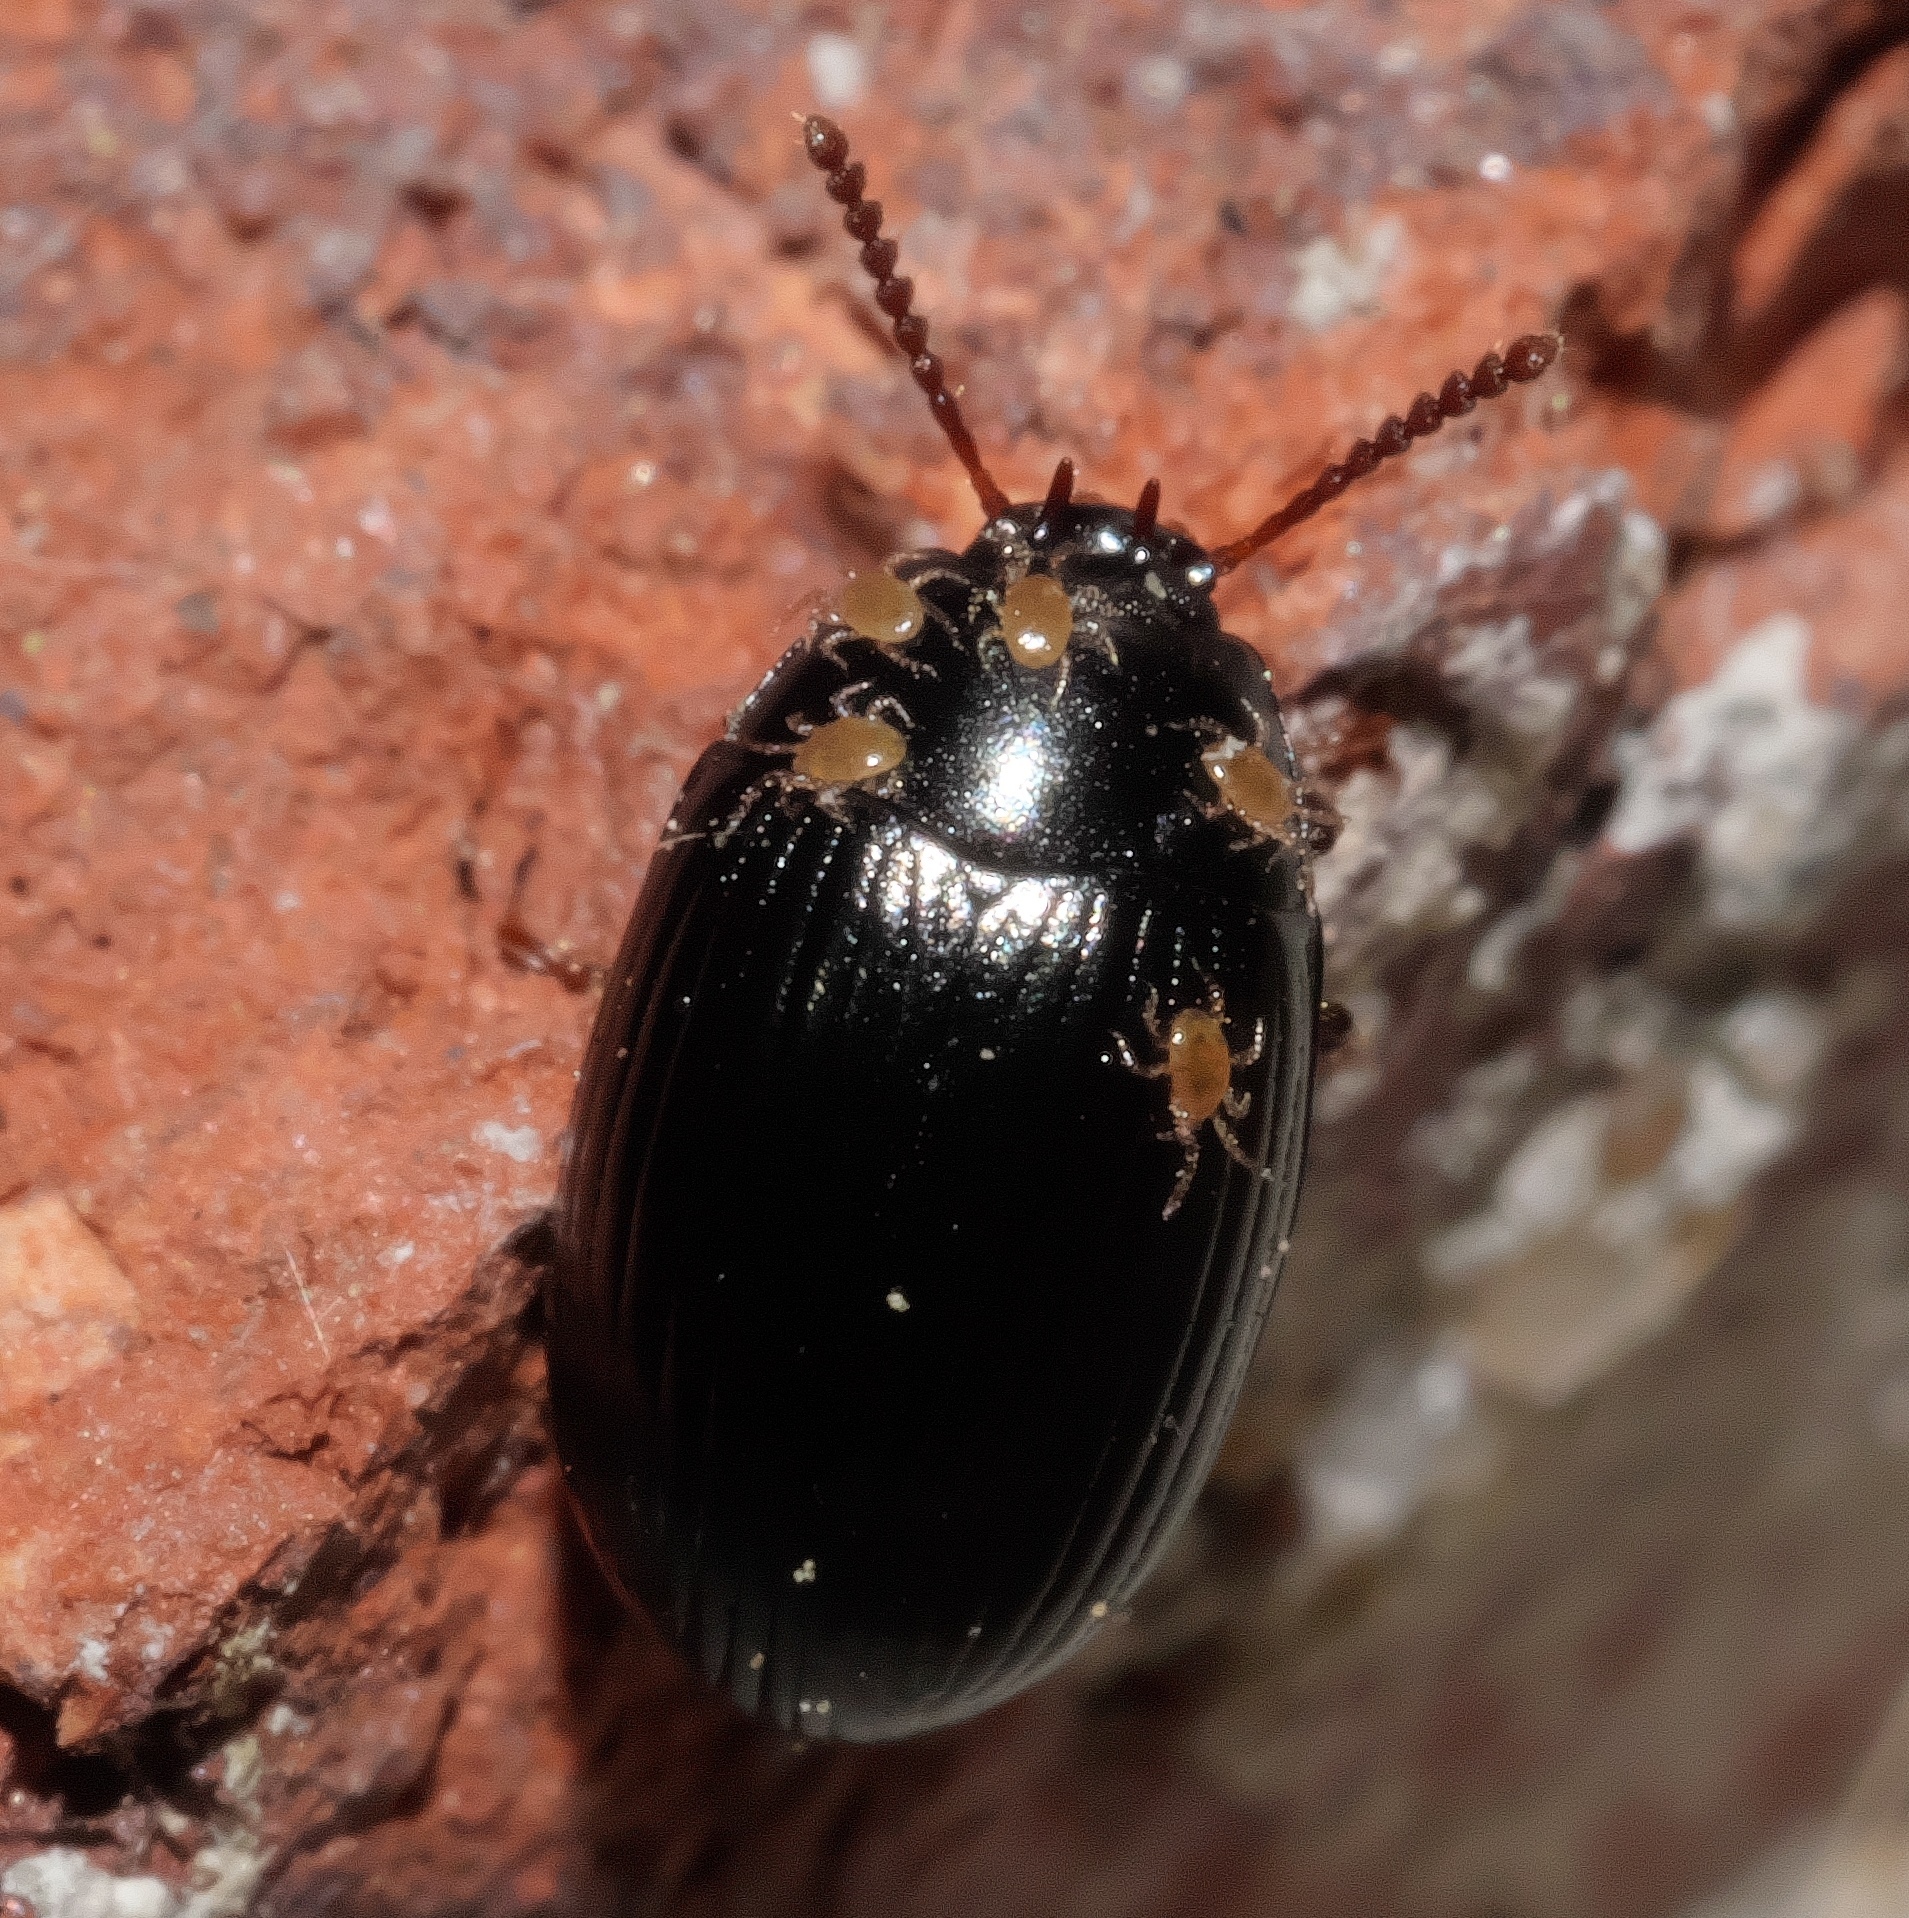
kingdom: Animalia
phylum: Arthropoda
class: Insecta
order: Coleoptera
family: Tenebrionidae
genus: Platydema
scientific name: Platydema excavata
